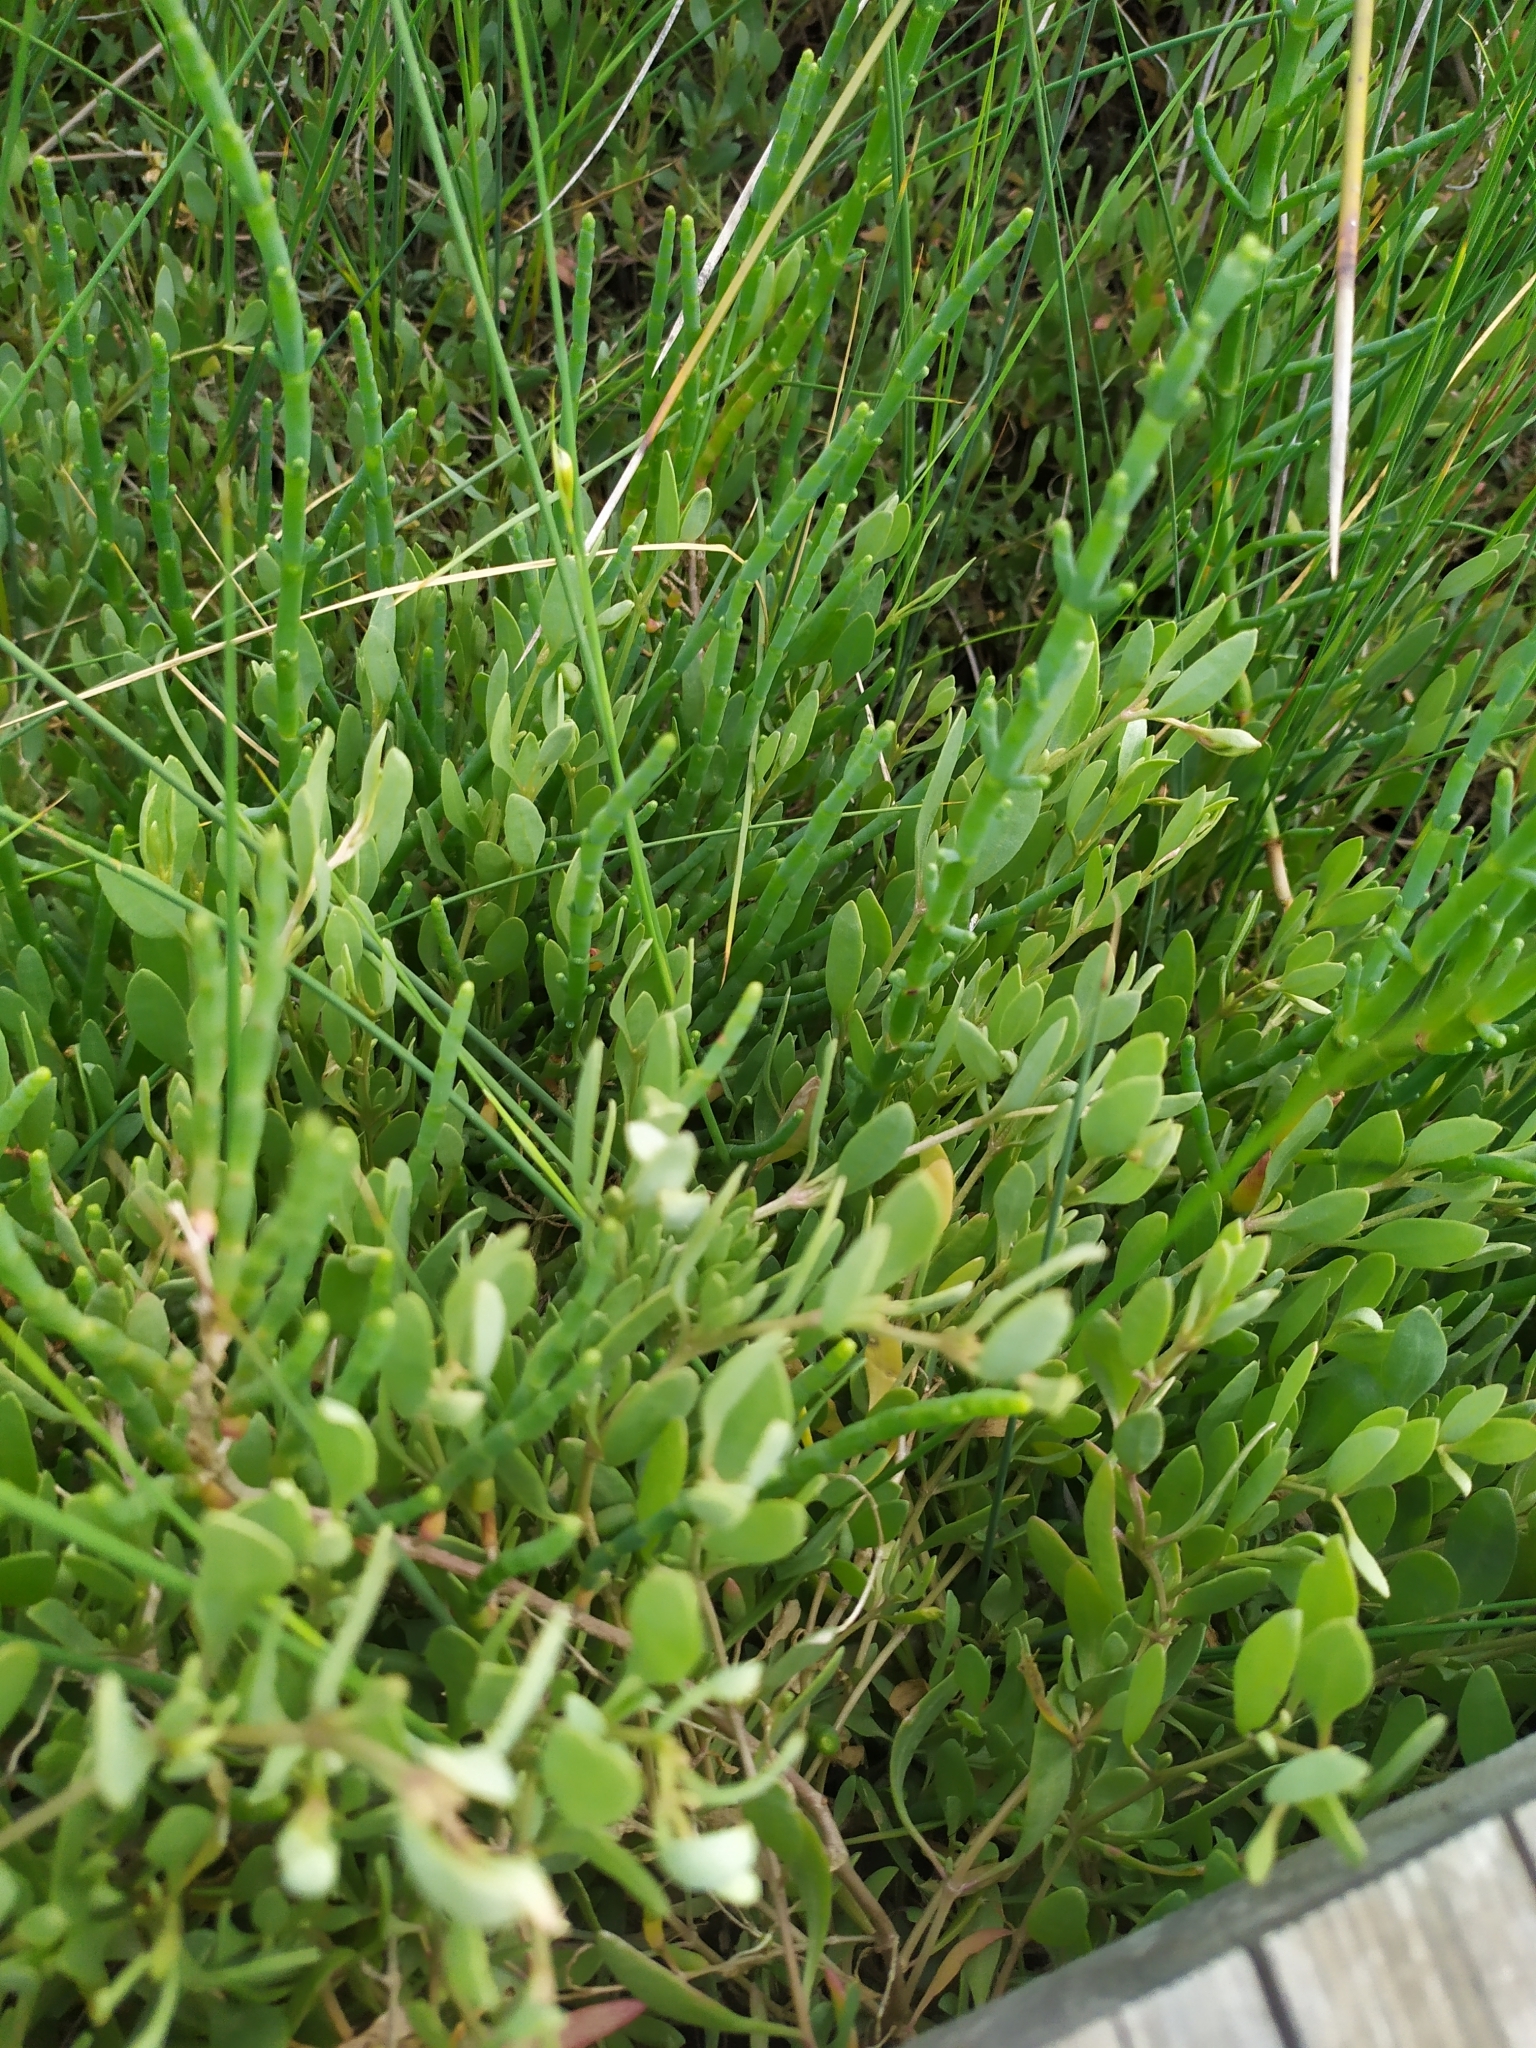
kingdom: Plantae
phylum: Tracheophyta
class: Magnoliopsida
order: Caryophyllales
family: Amaranthaceae
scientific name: Amaranthaceae
